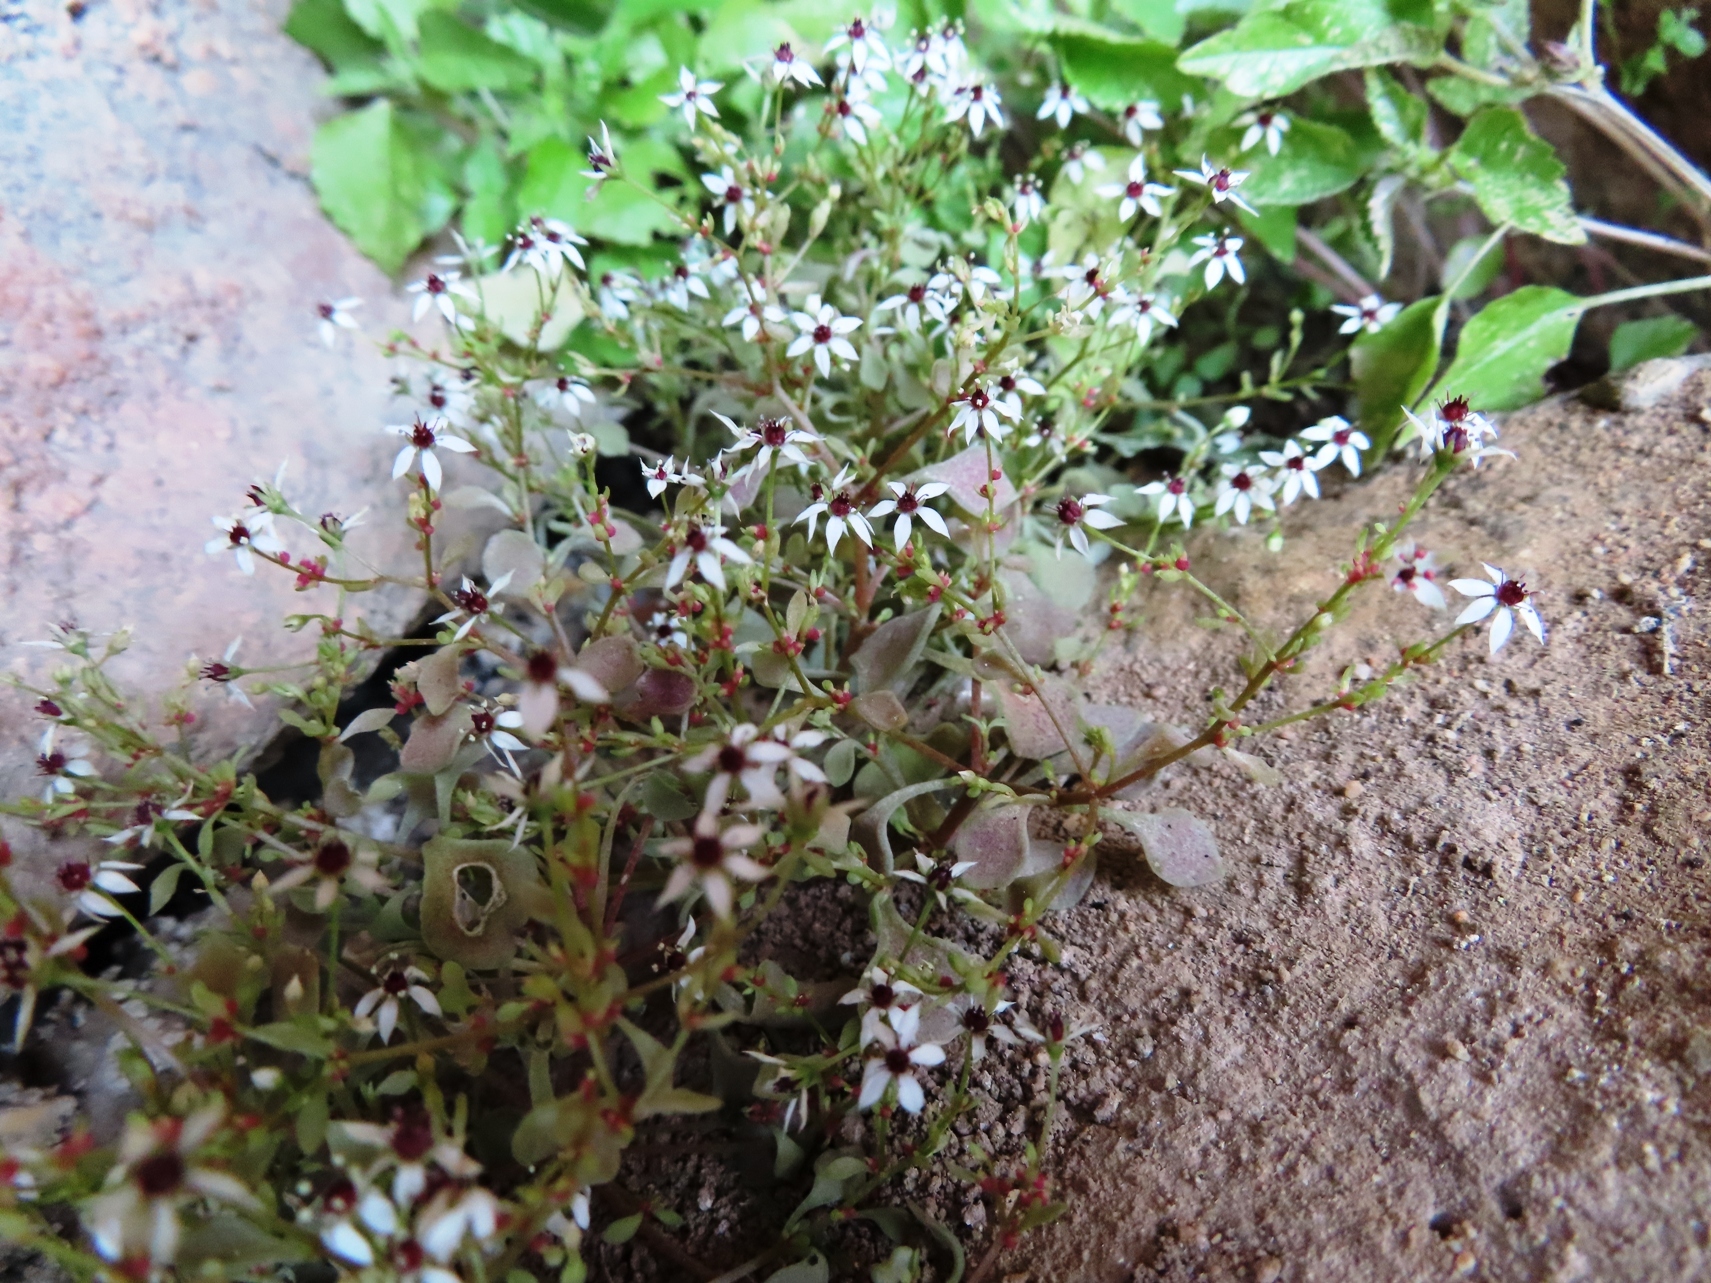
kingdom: Plantae
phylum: Tracheophyta
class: Magnoliopsida
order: Saxifragales
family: Crassulaceae
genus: Crassula
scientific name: Crassula dentata
